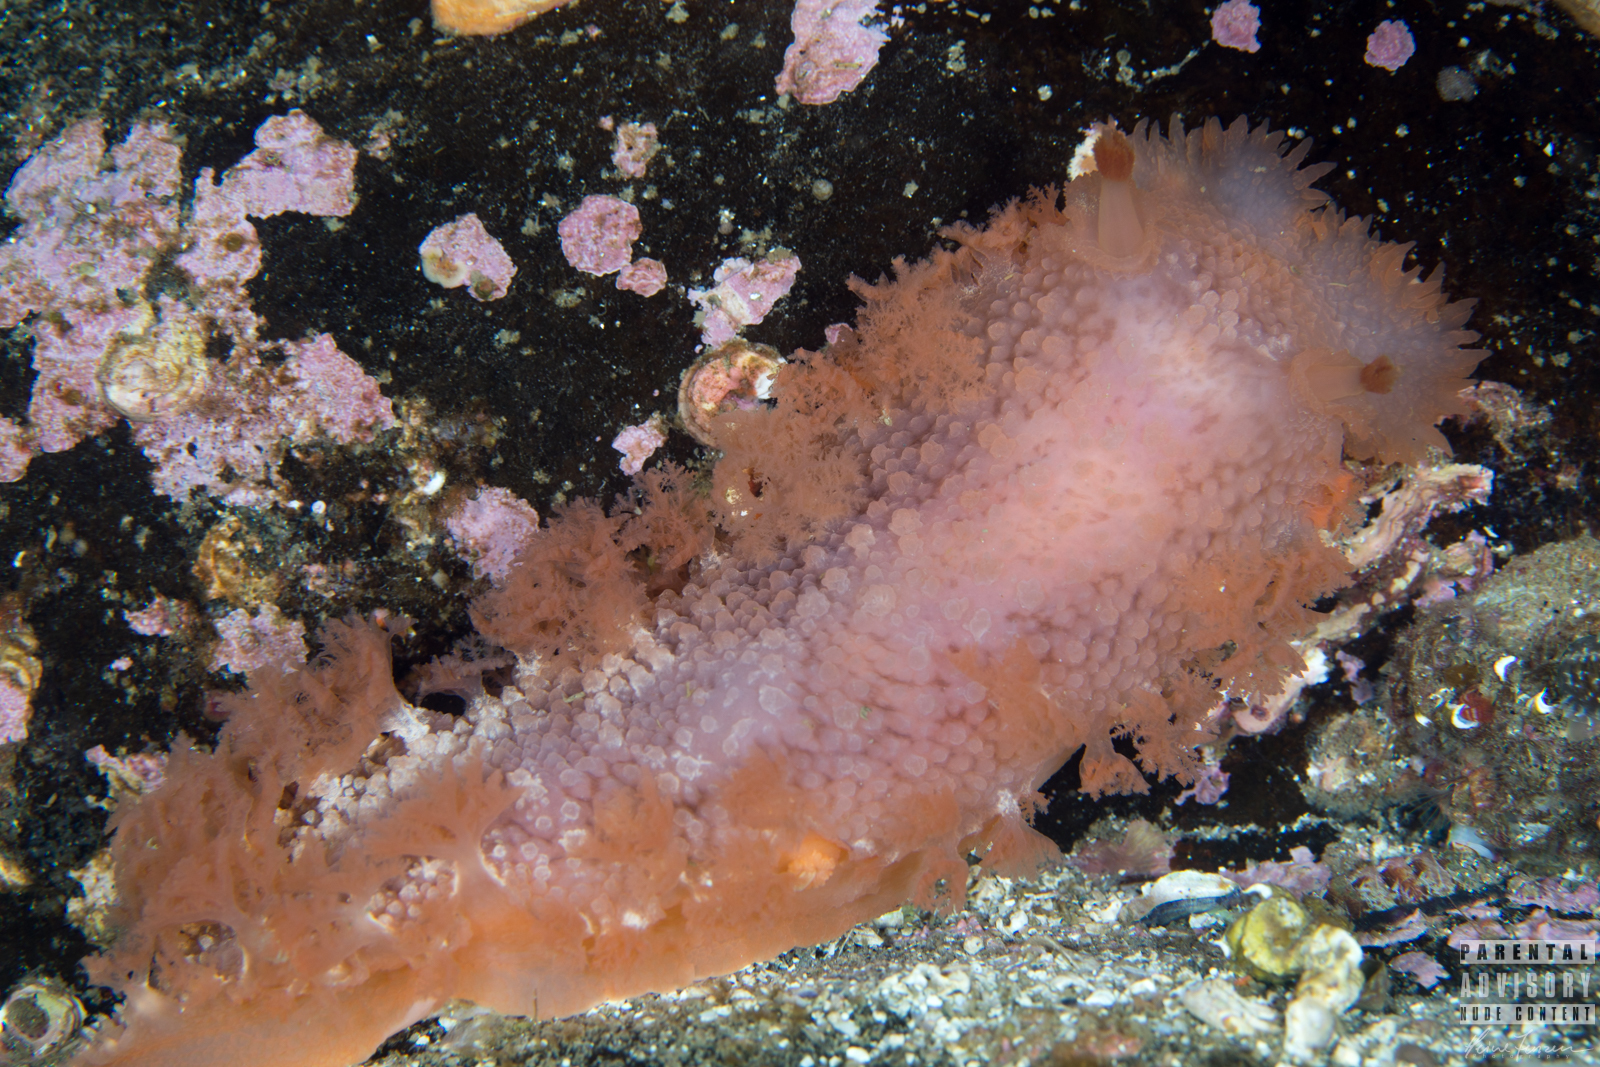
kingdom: Animalia
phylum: Mollusca
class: Gastropoda
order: Nudibranchia
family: Tritoniidae
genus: Tritonia
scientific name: Tritonia hombergii
